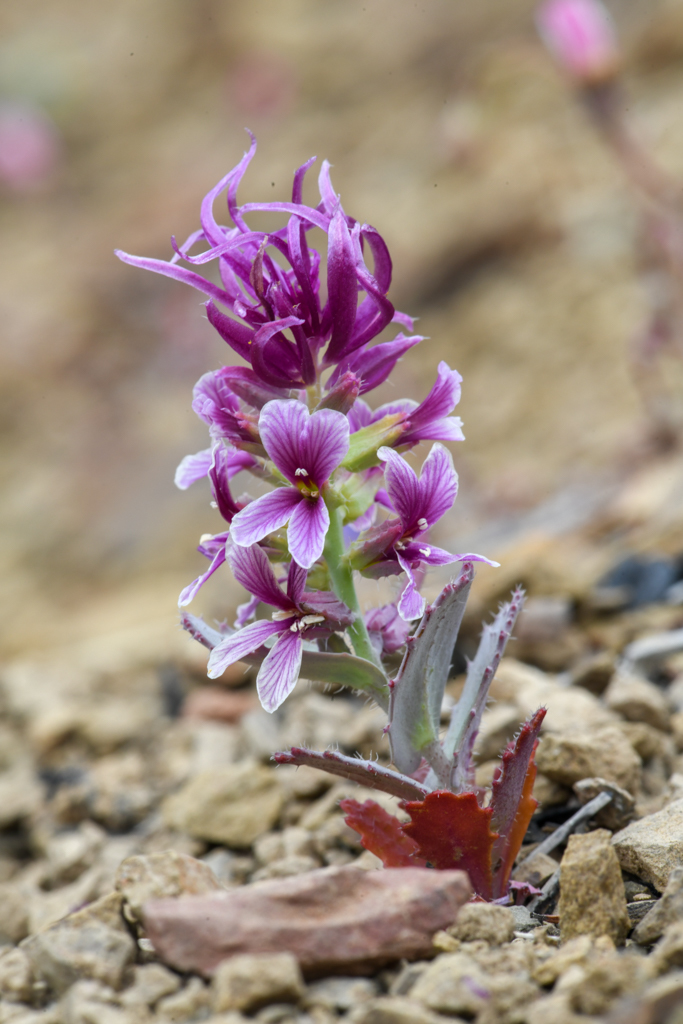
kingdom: Plantae
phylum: Tracheophyta
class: Magnoliopsida
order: Brassicales
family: Brassicaceae
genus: Streptanthus
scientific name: Streptanthus callistus
